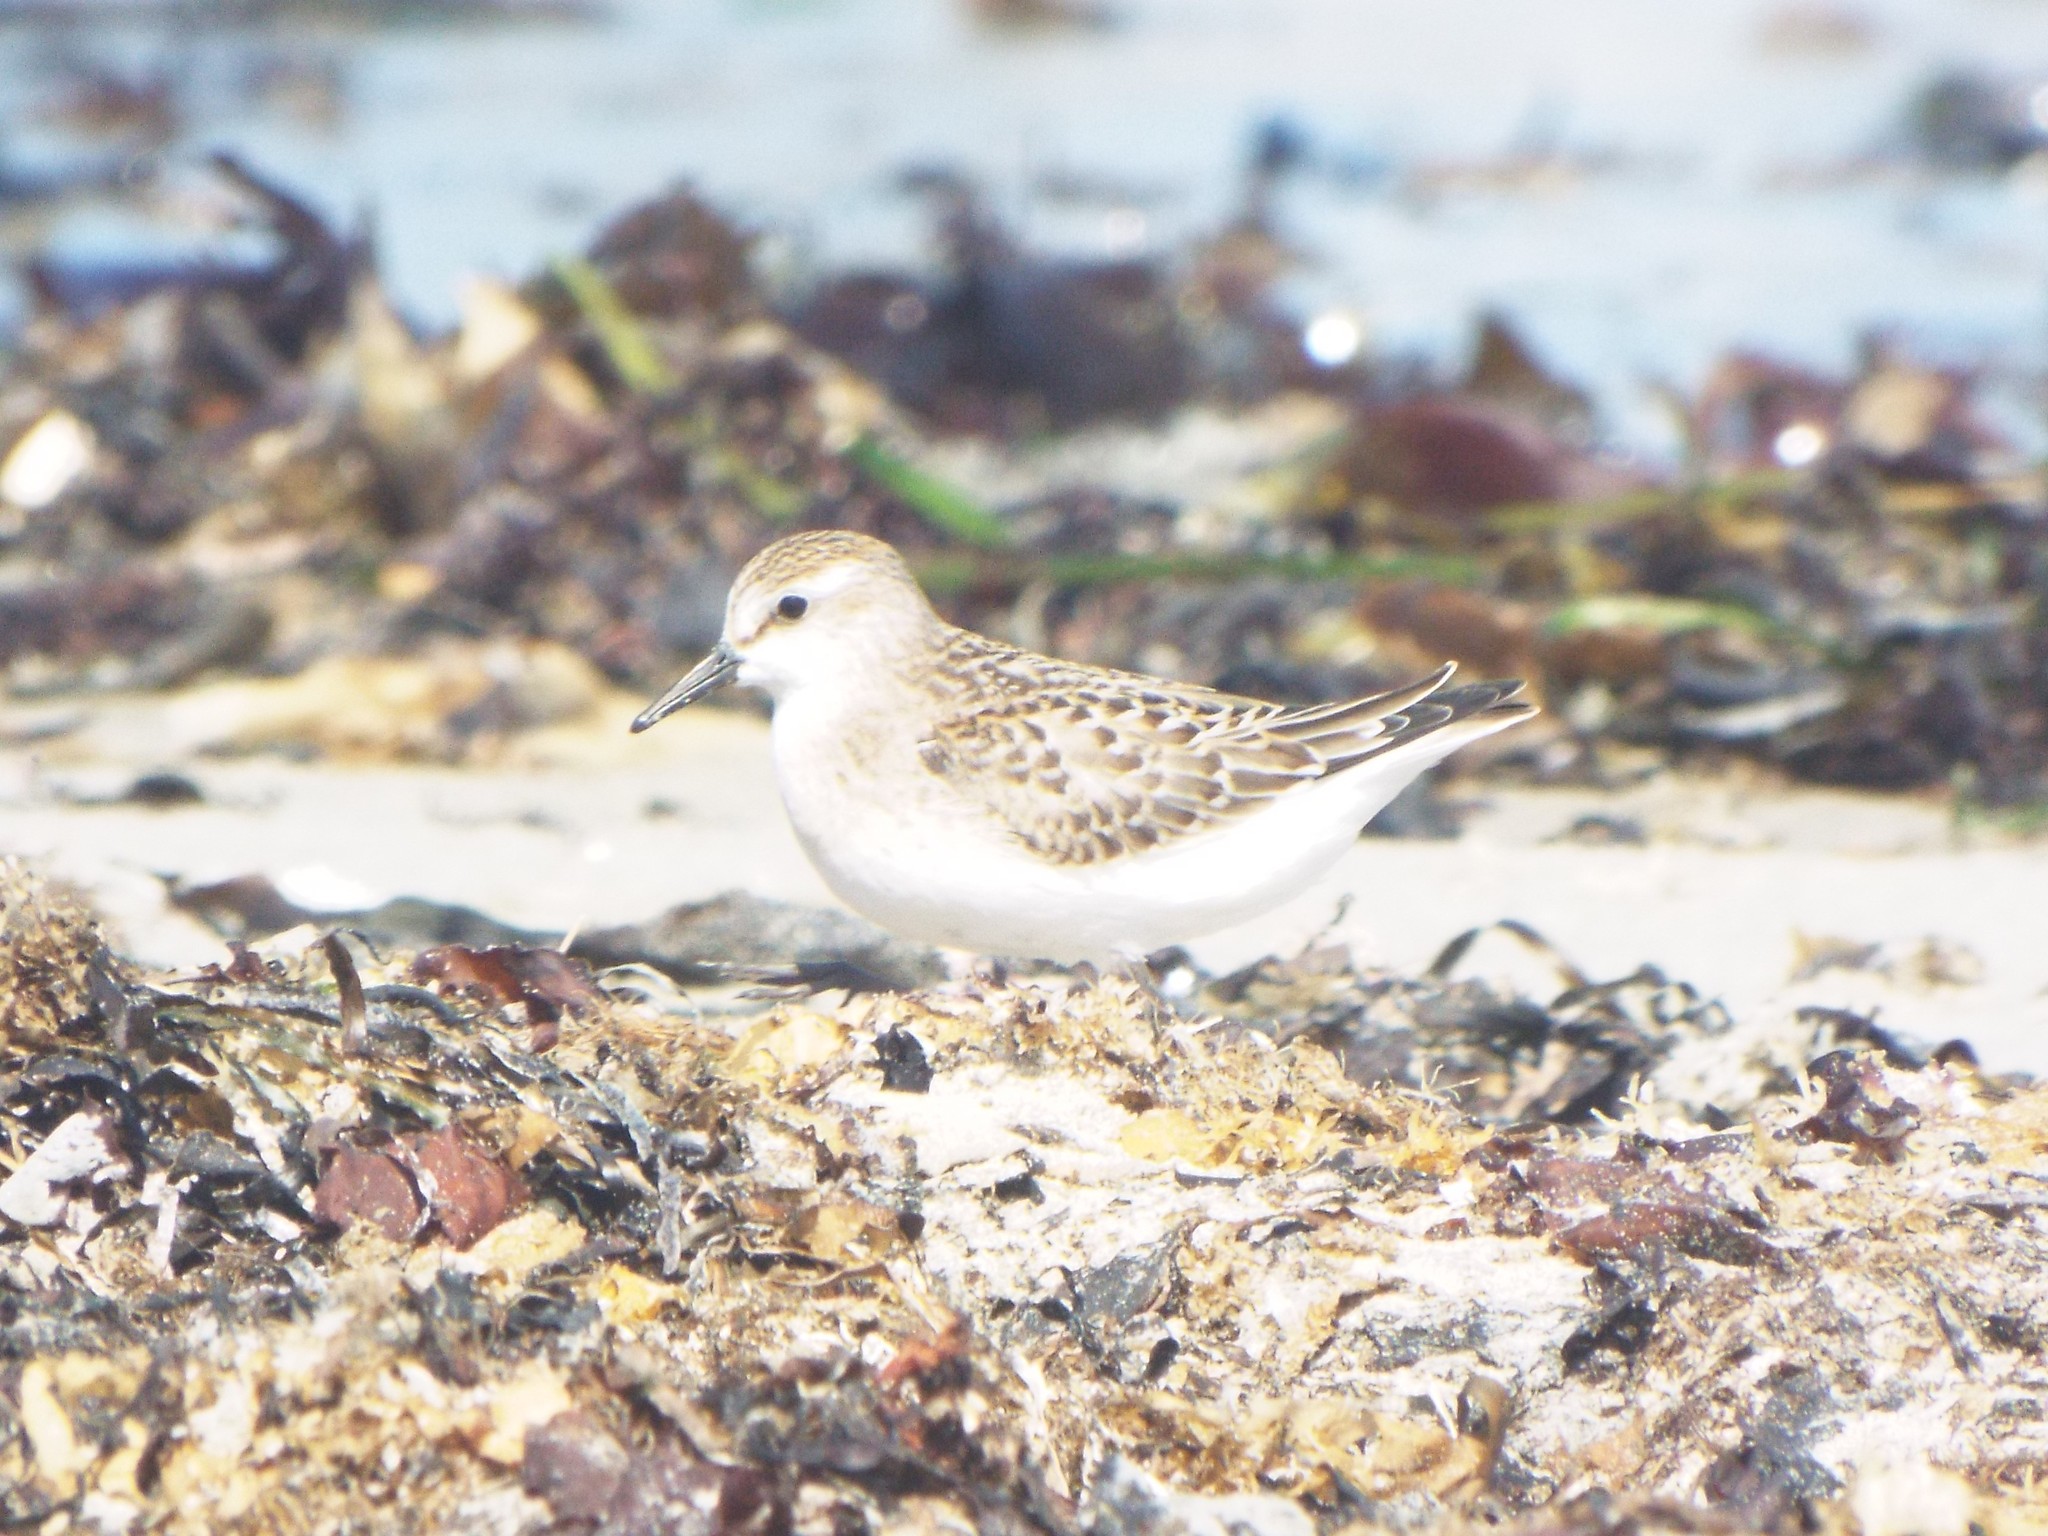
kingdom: Animalia
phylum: Chordata
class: Aves
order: Charadriiformes
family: Scolopacidae
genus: Calidris
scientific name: Calidris pusilla
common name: Semipalmated sandpiper
